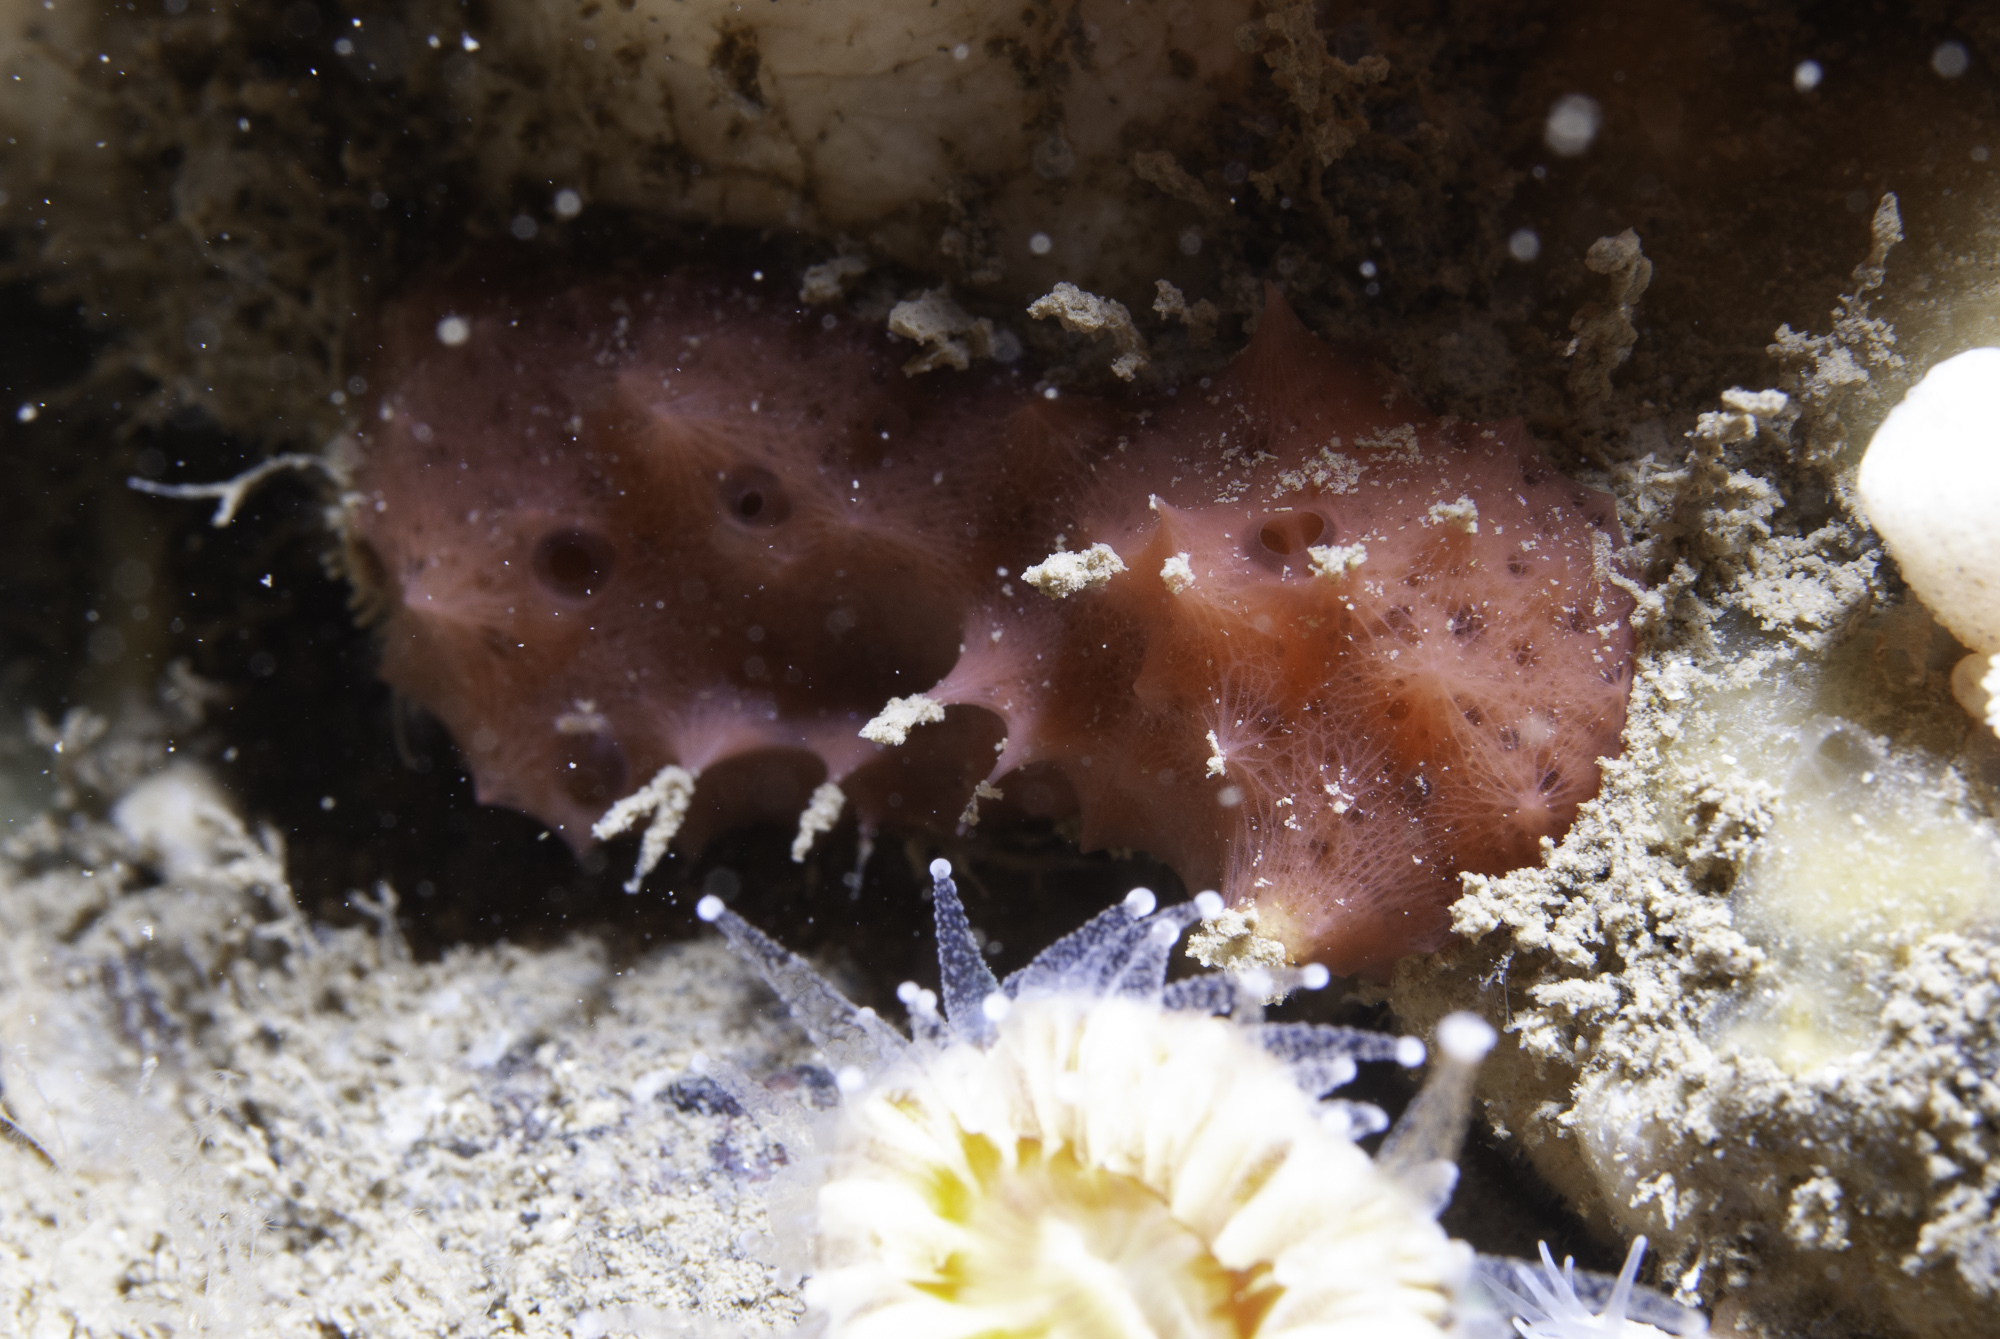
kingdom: Animalia
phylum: Porifera
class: Demospongiae
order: Dendroceratida
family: Darwinellidae
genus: Aplysilla
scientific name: Aplysilla rosea
